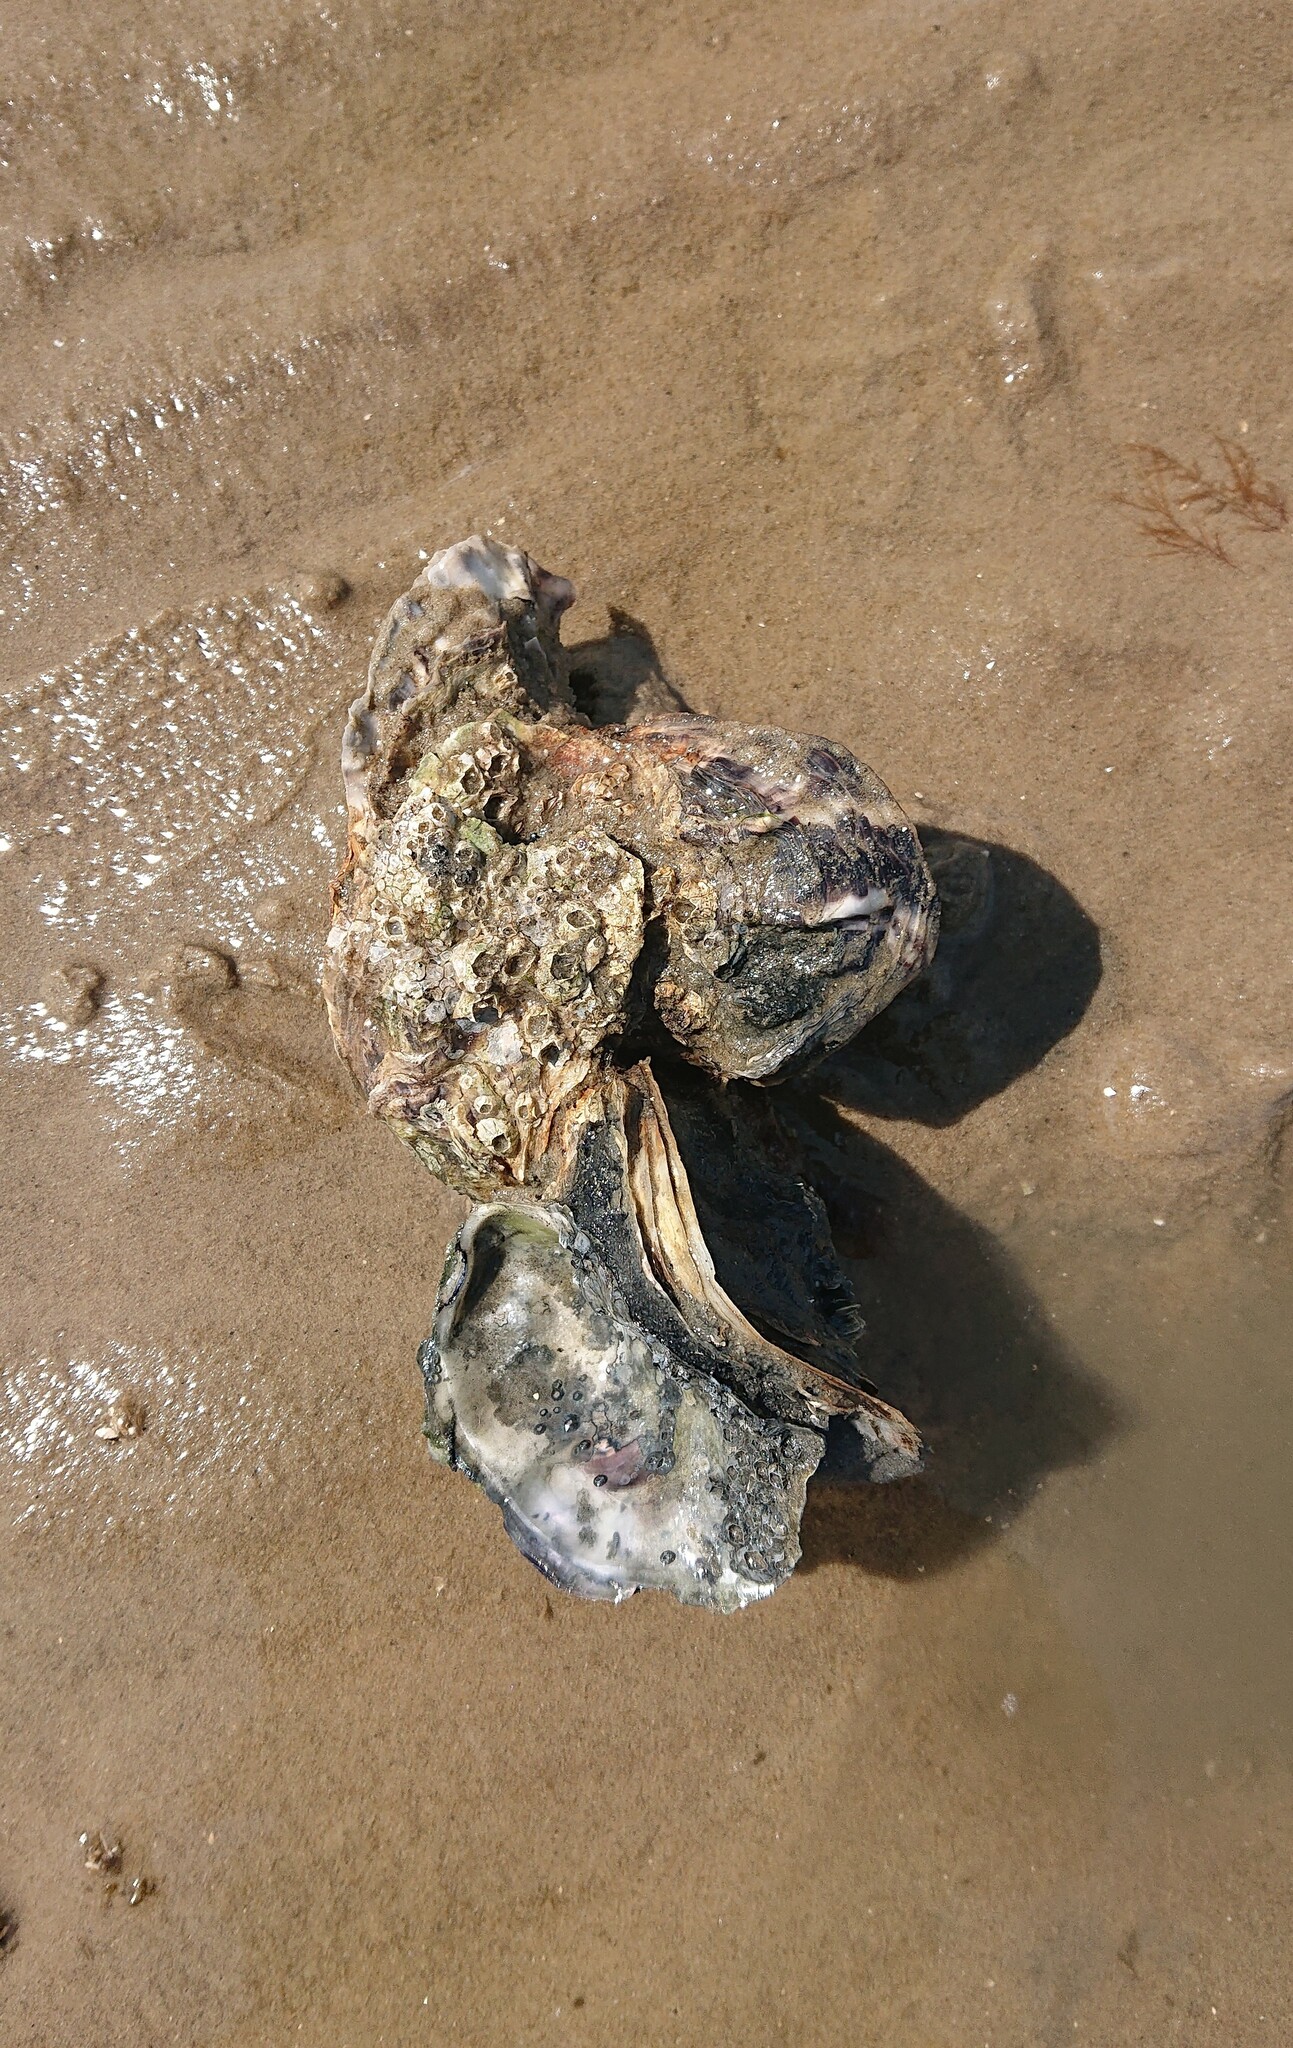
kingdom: Animalia
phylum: Mollusca
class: Bivalvia
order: Ostreida
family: Ostreidae
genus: Magallana
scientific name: Magallana gigas
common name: Pacific oyster
